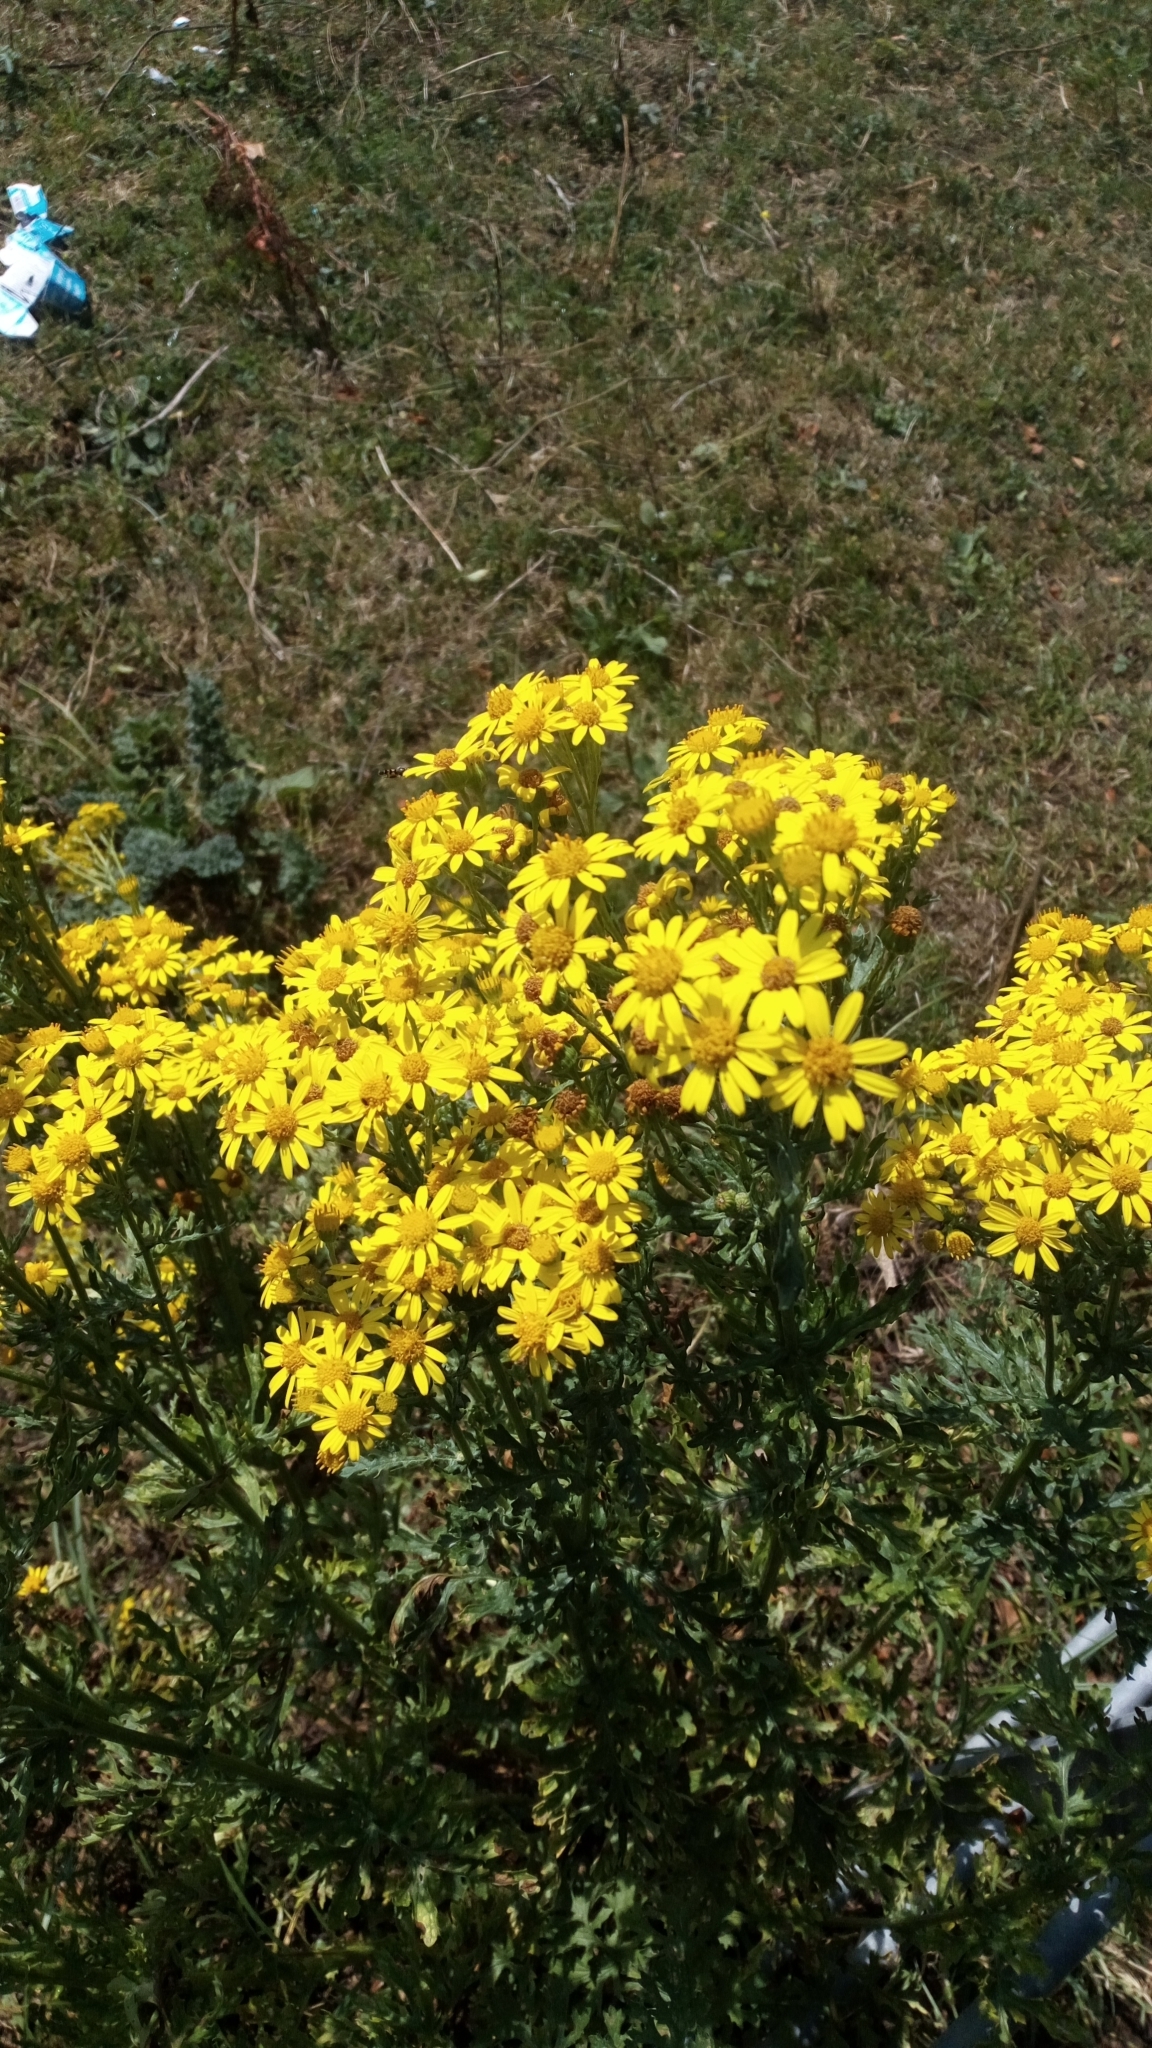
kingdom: Plantae
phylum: Tracheophyta
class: Magnoliopsida
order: Asterales
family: Asteraceae
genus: Jacobaea
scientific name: Jacobaea vulgaris
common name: Stinking willie
